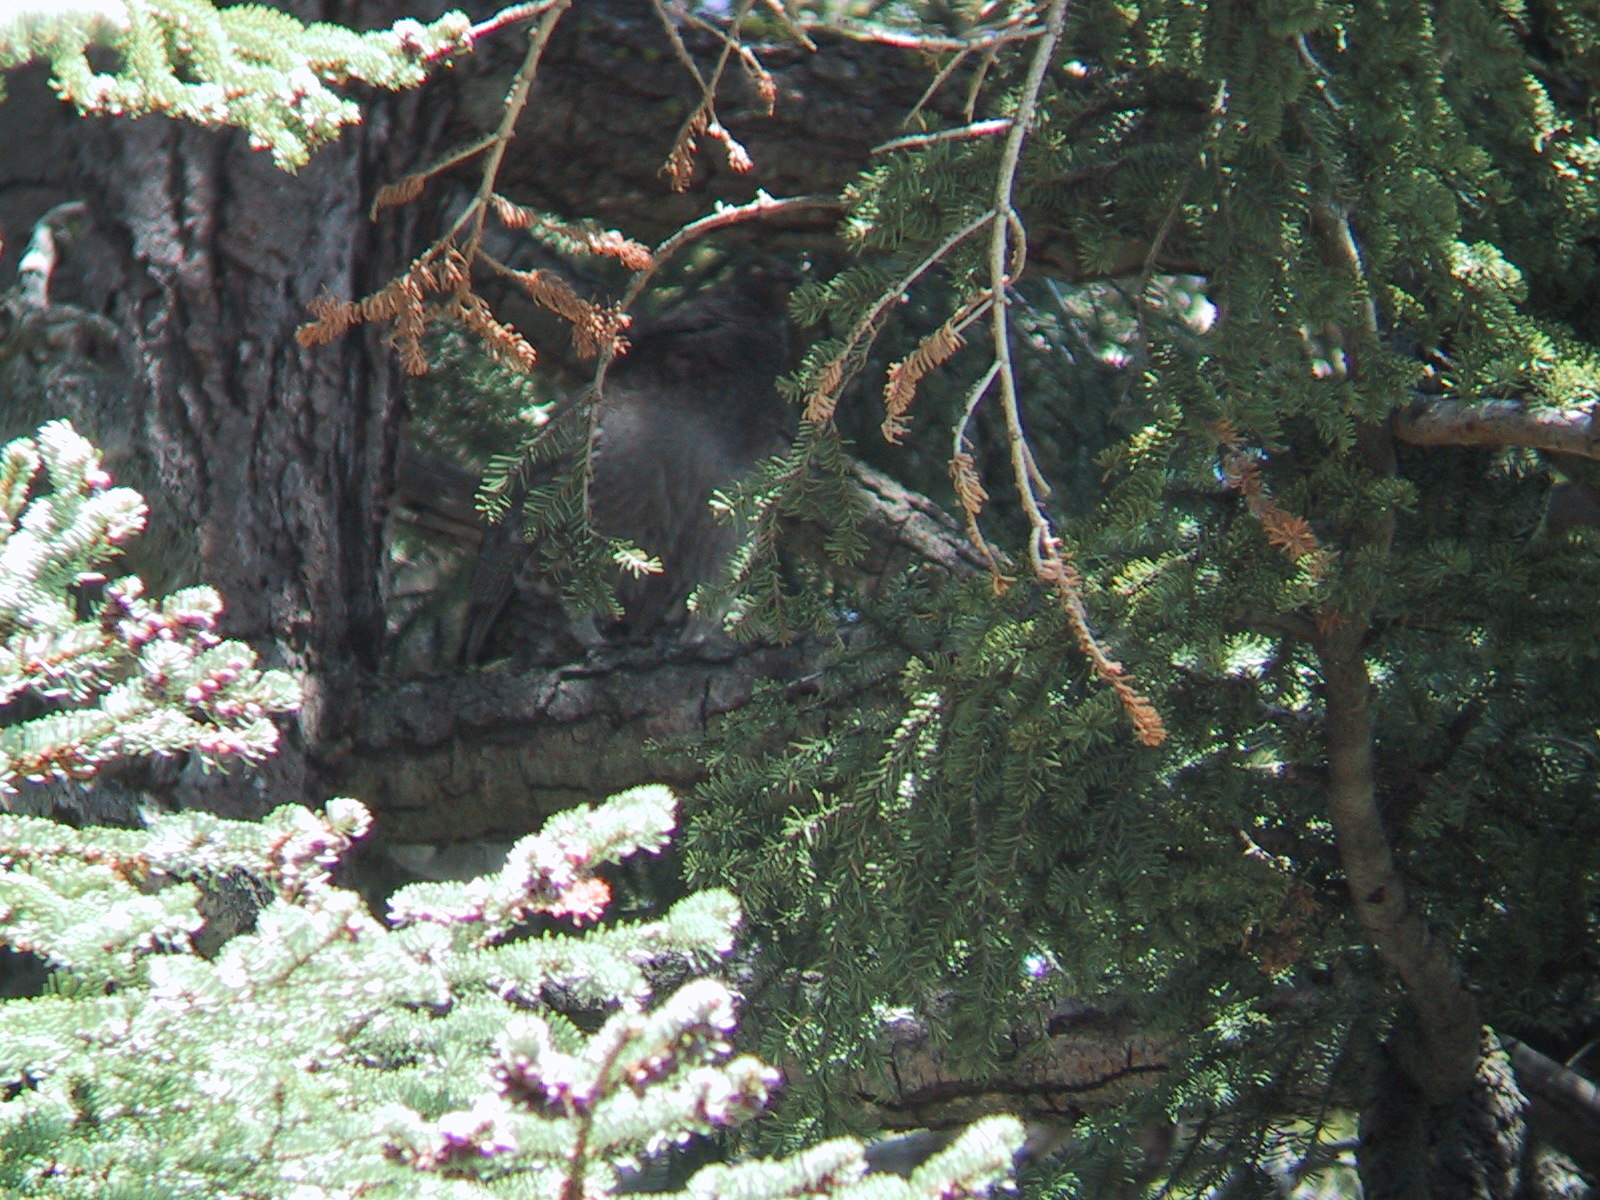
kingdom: Animalia
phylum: Chordata
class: Aves
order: Galliformes
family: Phasianidae
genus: Dendragapus
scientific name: Dendragapus fuliginosus
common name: Sooty grouse
